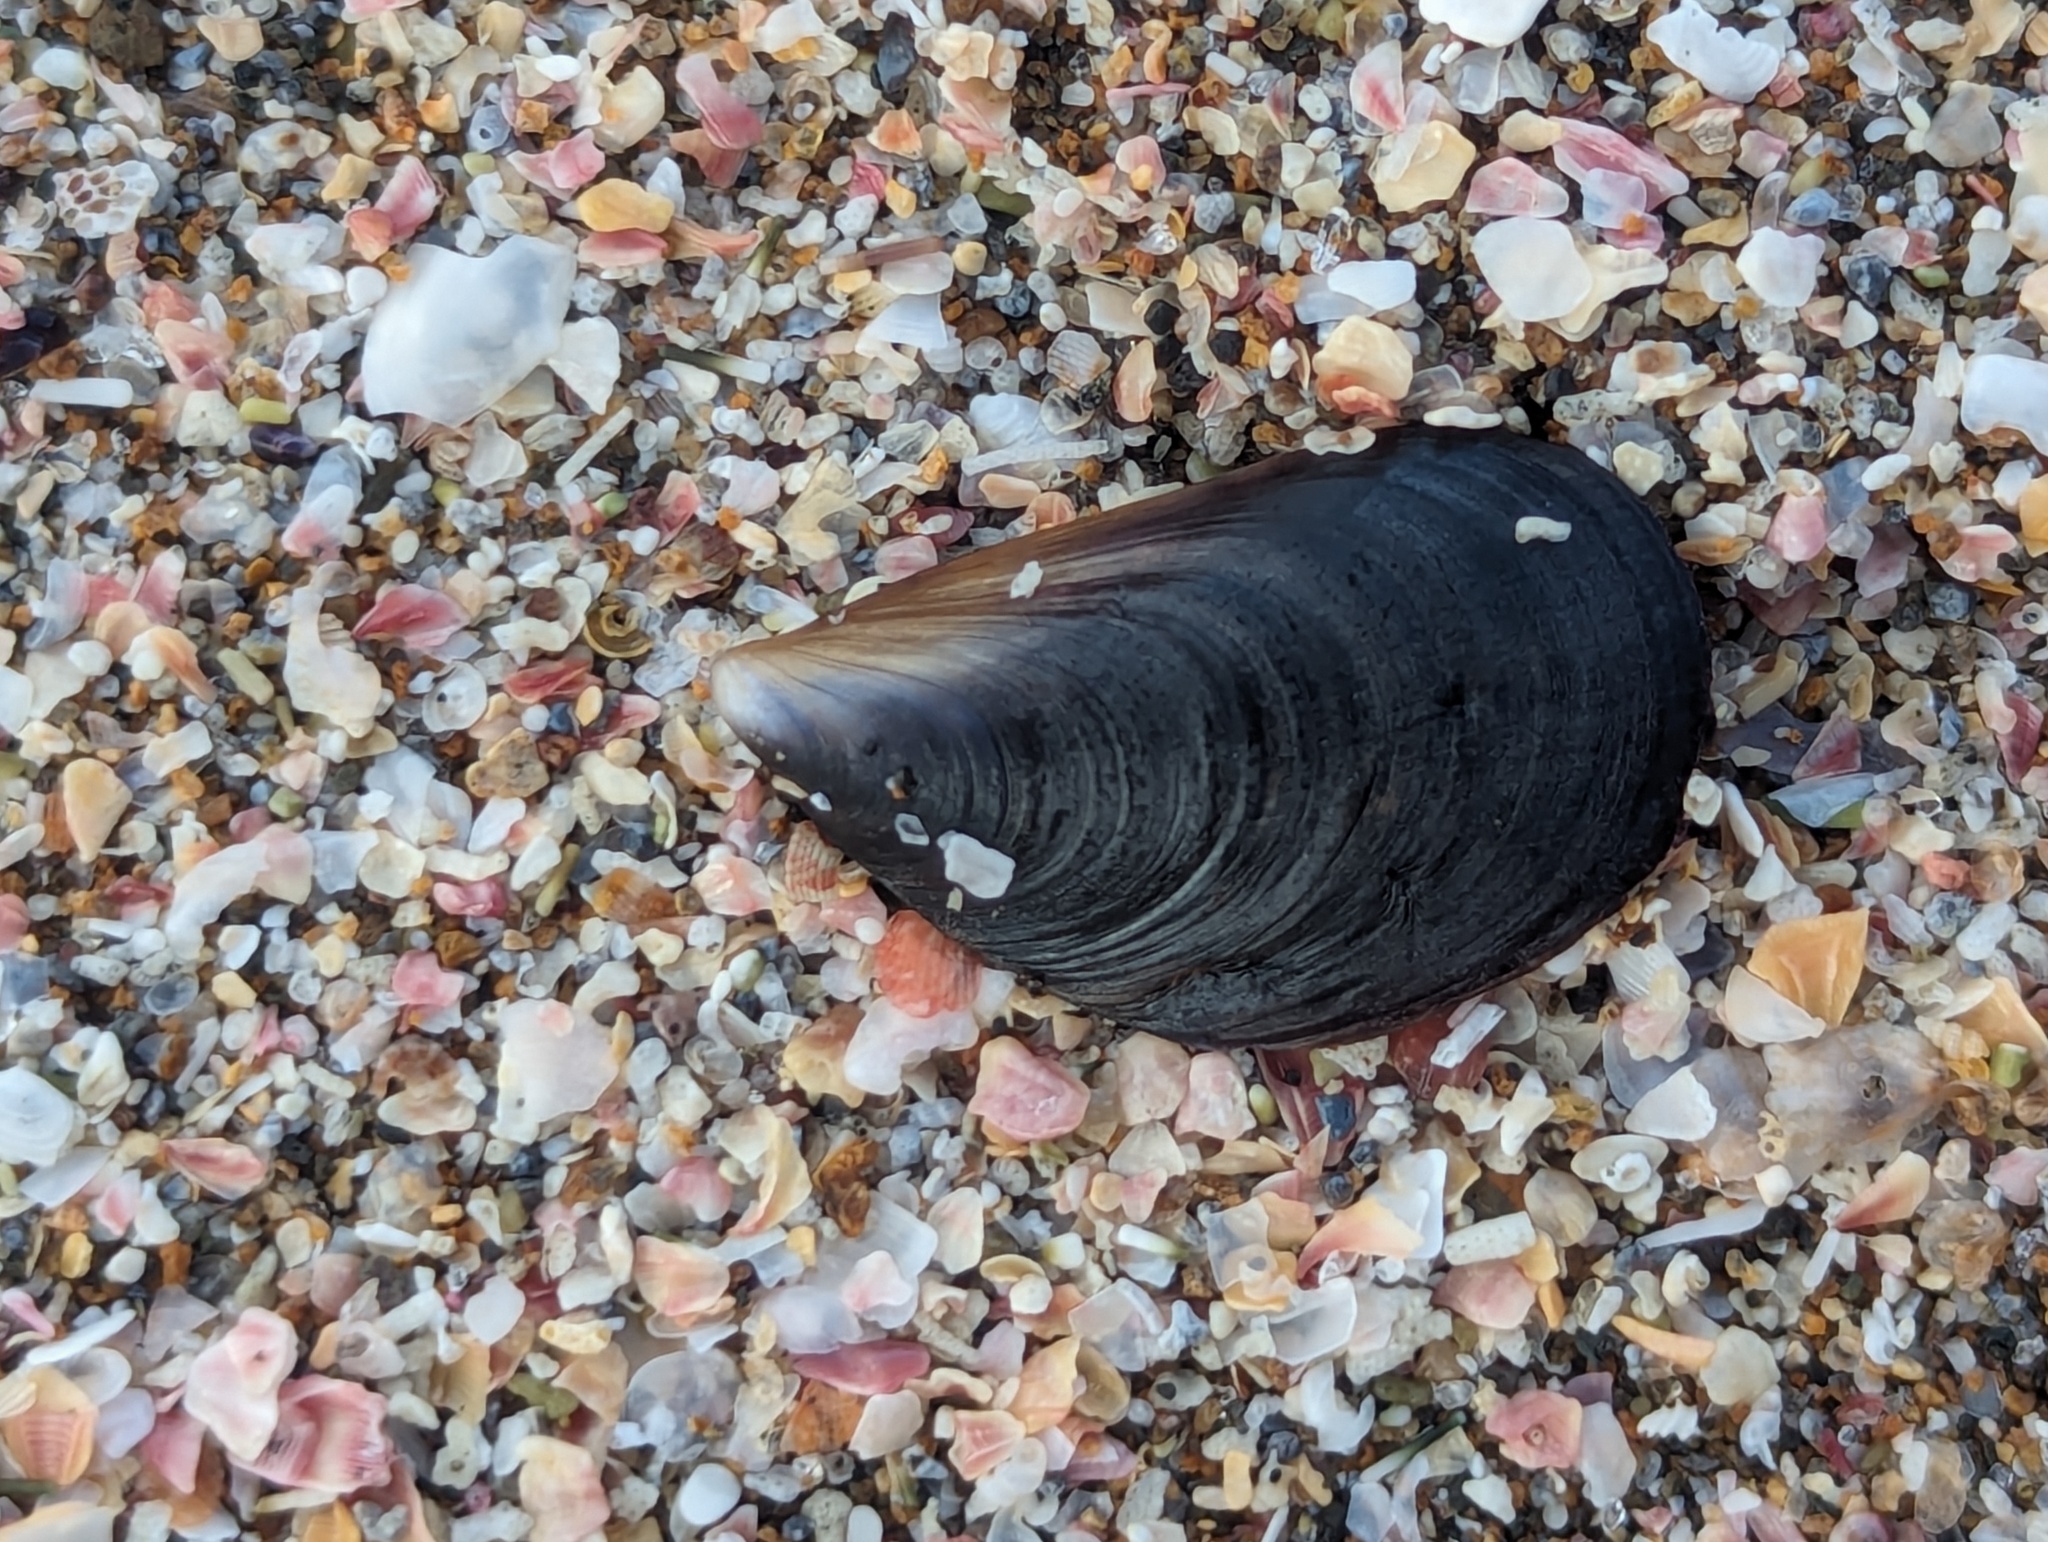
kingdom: Animalia
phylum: Mollusca
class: Bivalvia
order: Mytilida
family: Mytilidae
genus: Mytilus
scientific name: Mytilus planulatus
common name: Australian mussel
